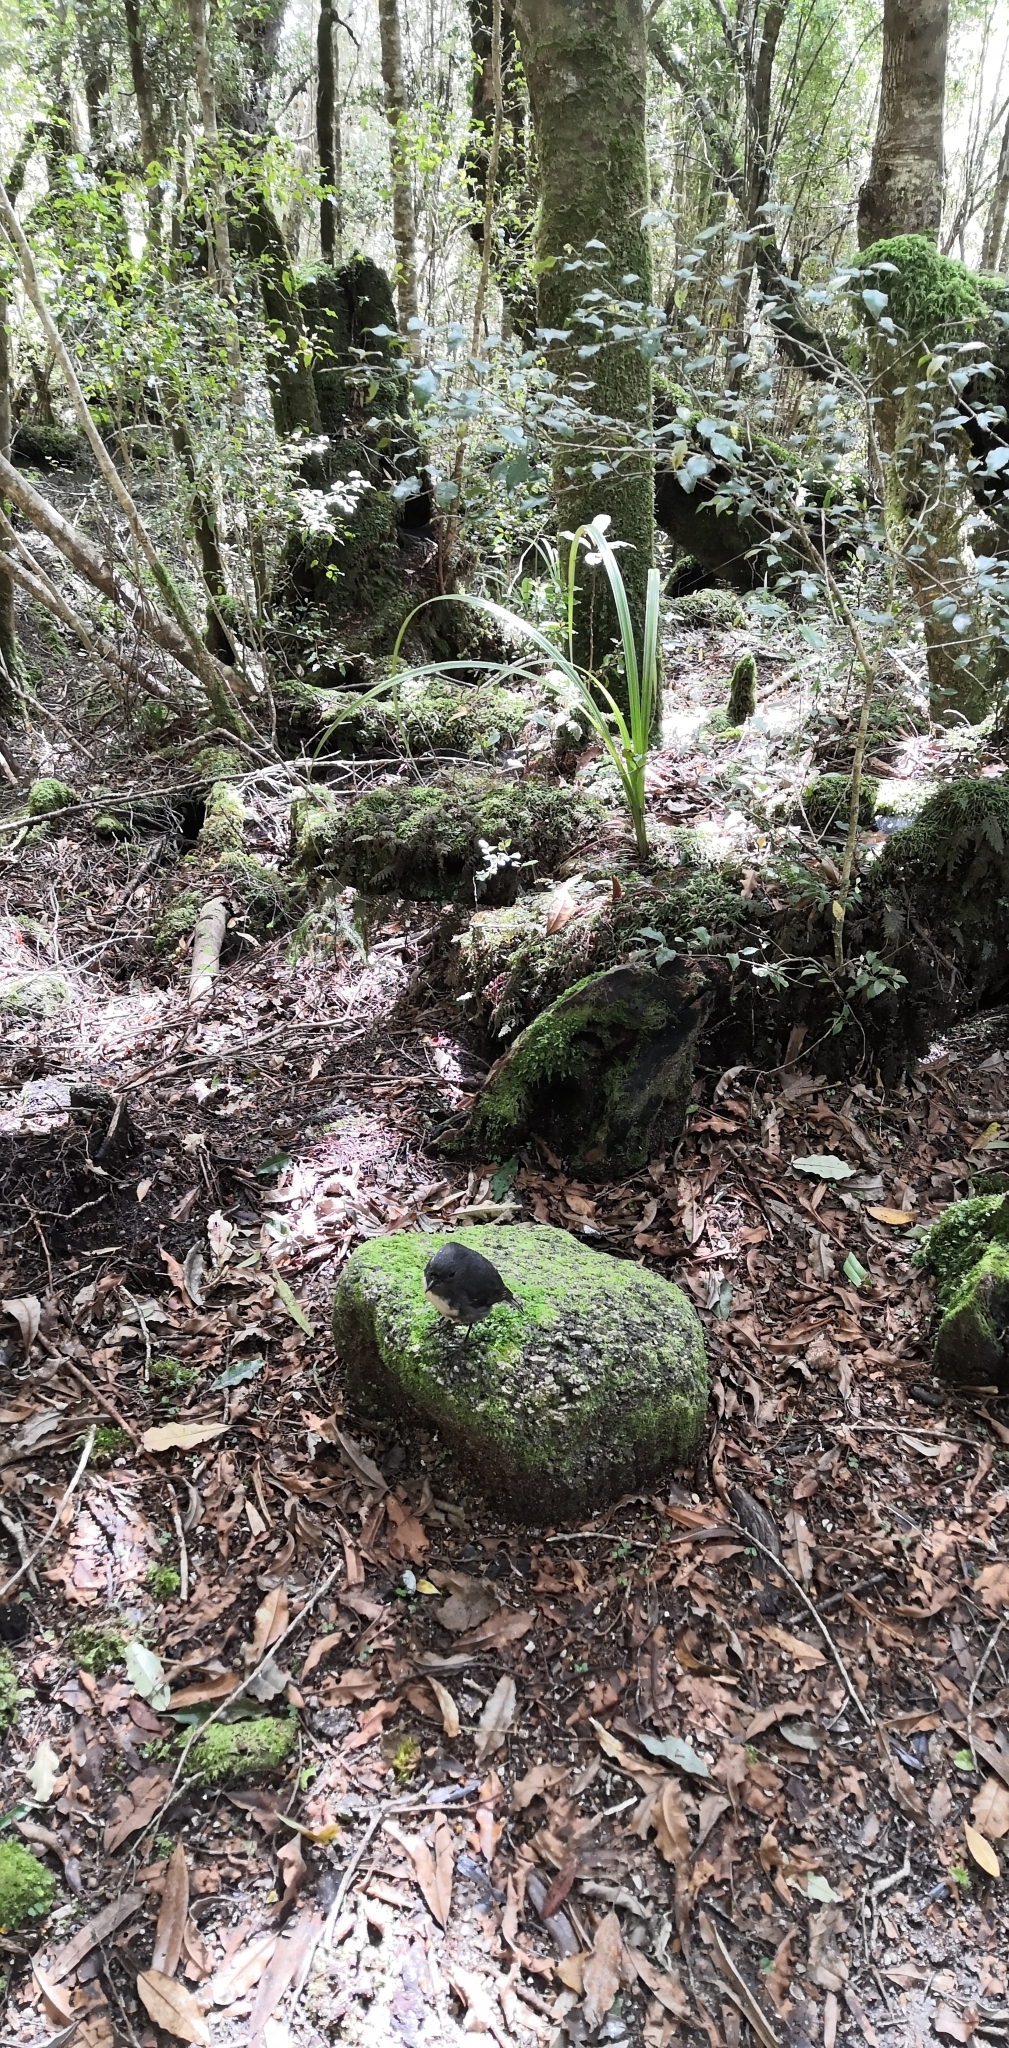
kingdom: Animalia
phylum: Chordata
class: Aves
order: Passeriformes
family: Petroicidae
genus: Petroica
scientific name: Petroica australis
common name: New zealand robin
